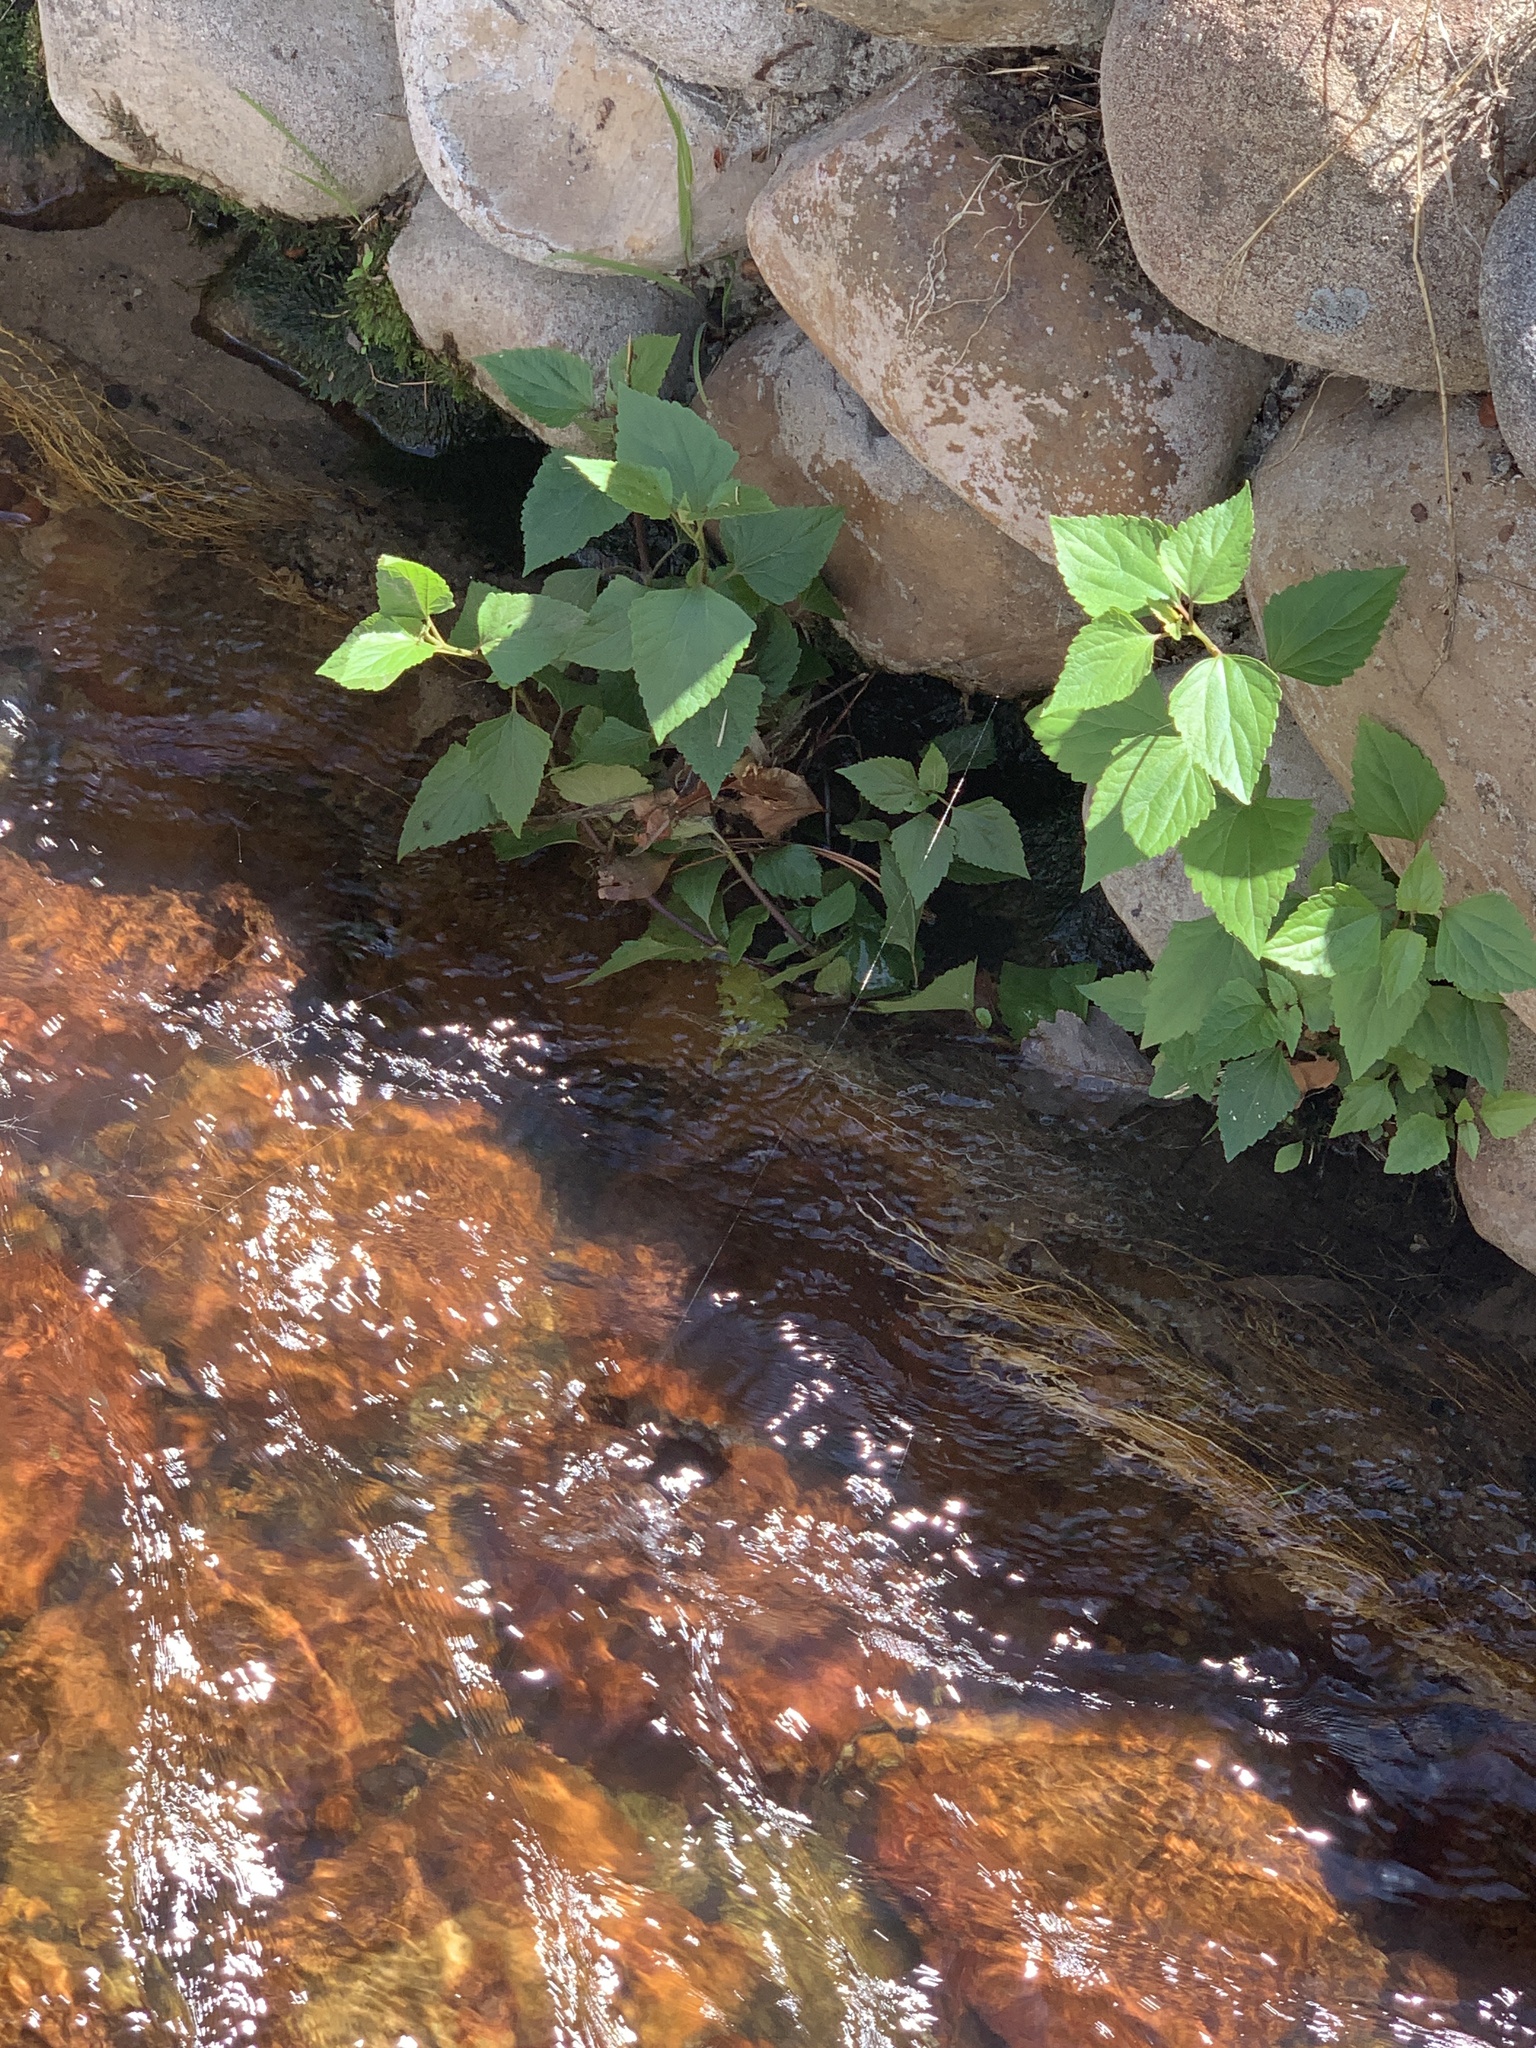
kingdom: Plantae
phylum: Tracheophyta
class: Magnoliopsida
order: Asterales
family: Asteraceae
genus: Ageratina
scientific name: Ageratina adenophora
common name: Sticky snakeroot
